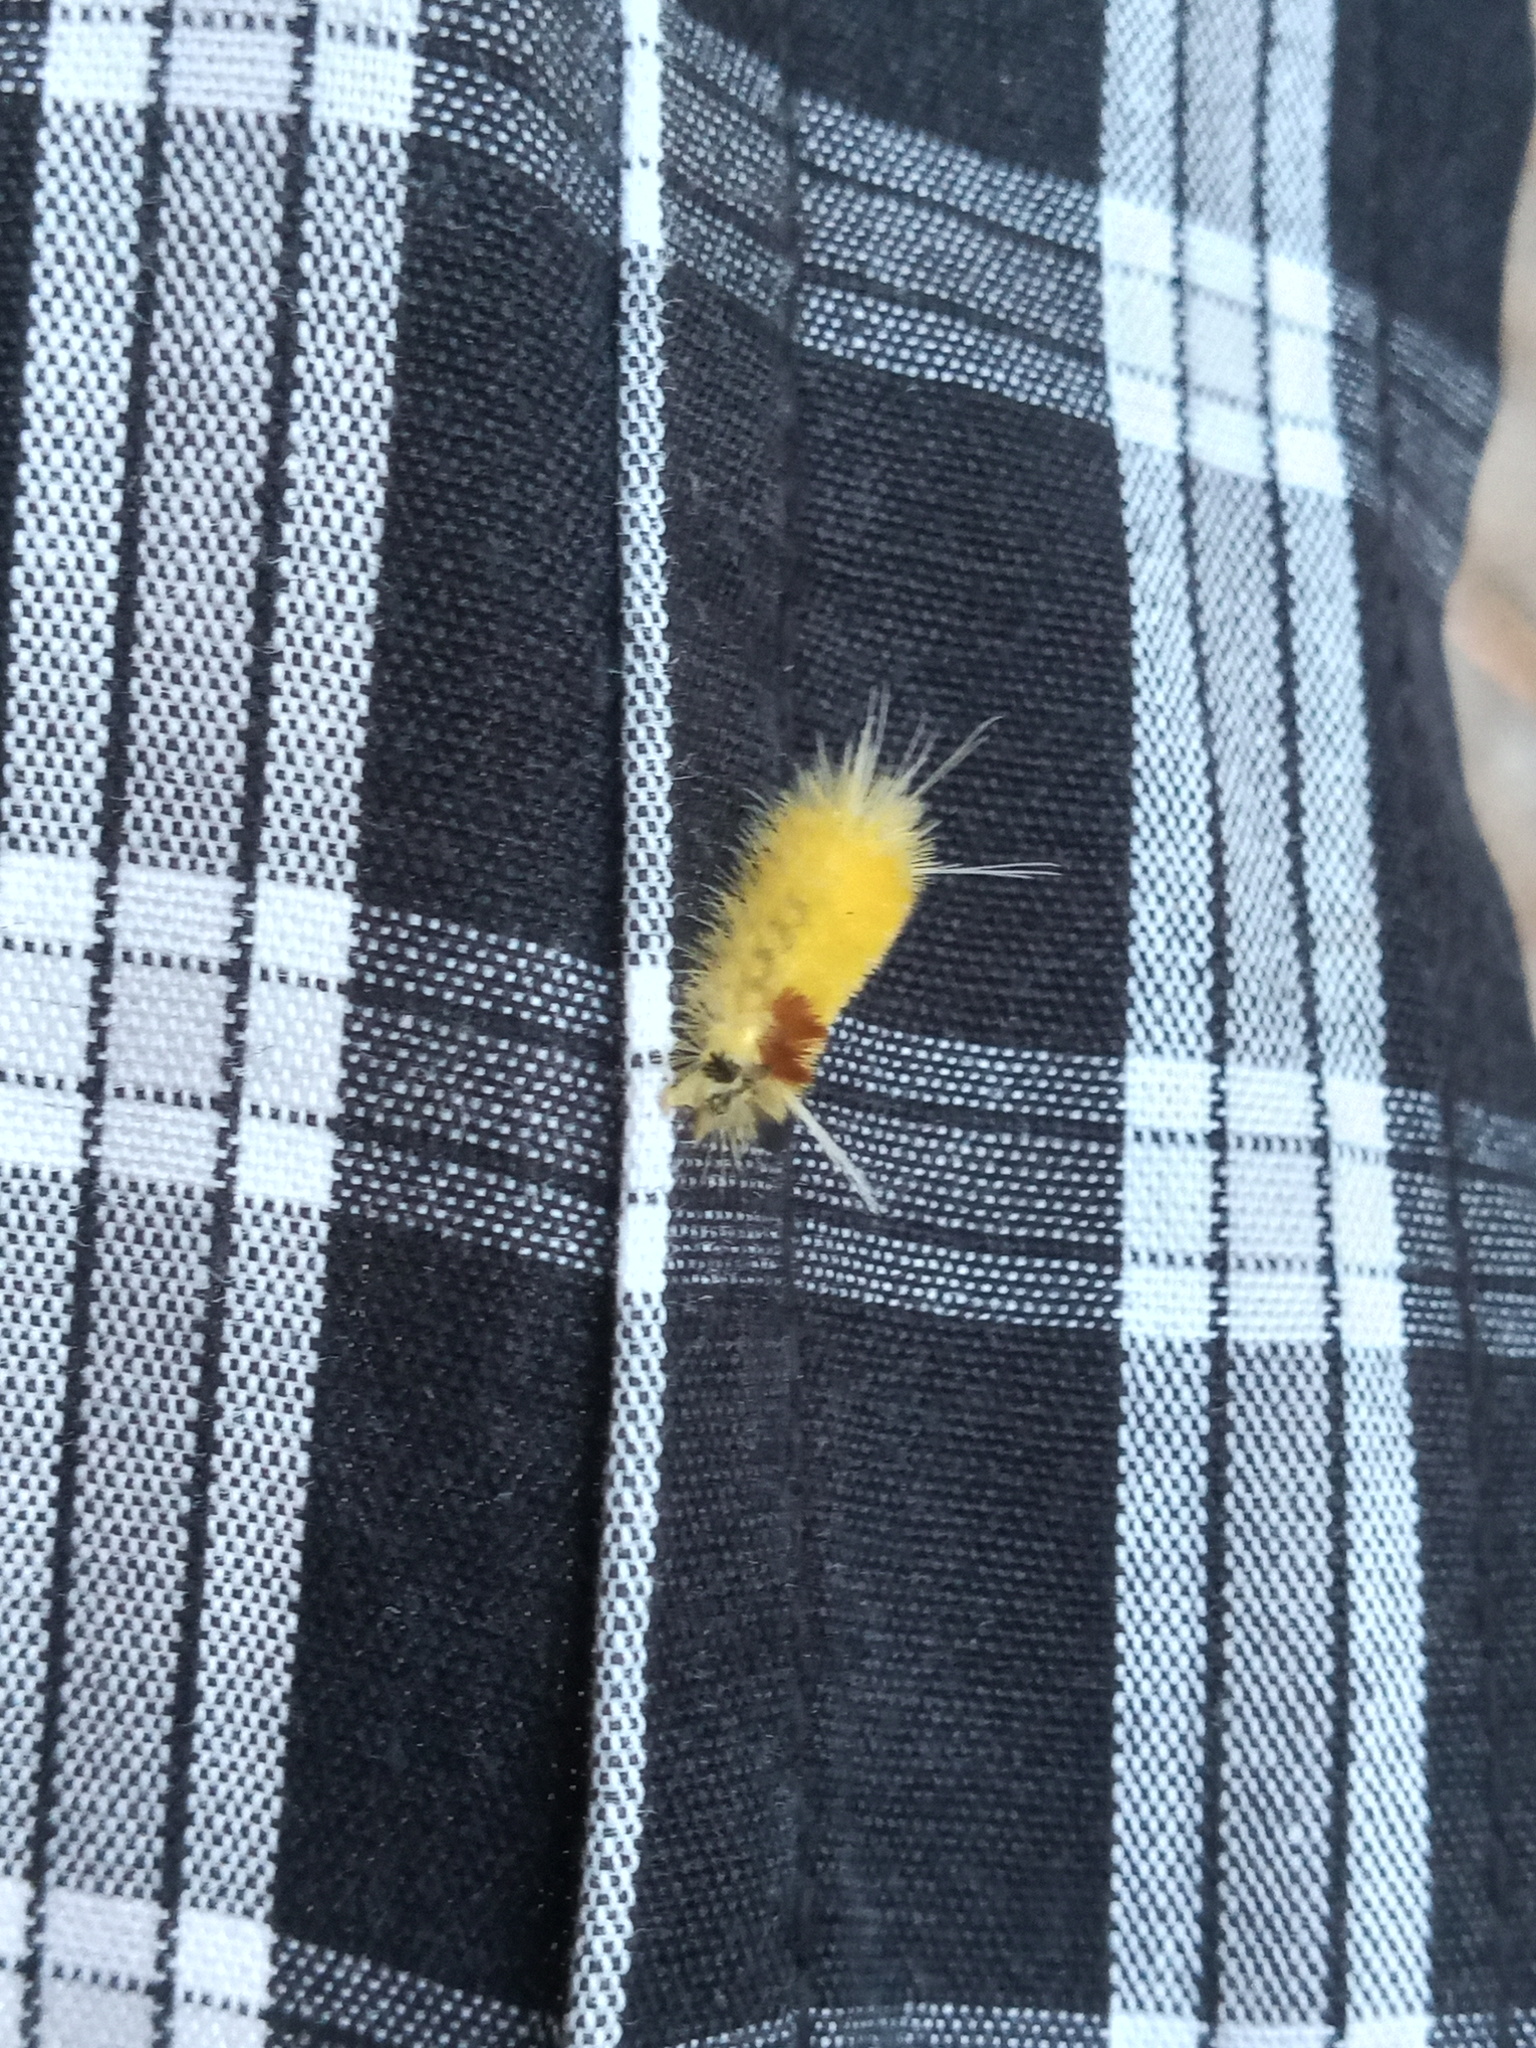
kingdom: Animalia
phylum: Arthropoda
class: Insecta
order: Lepidoptera
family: Erebidae
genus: Lophocampa
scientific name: Lophocampa annulosa
